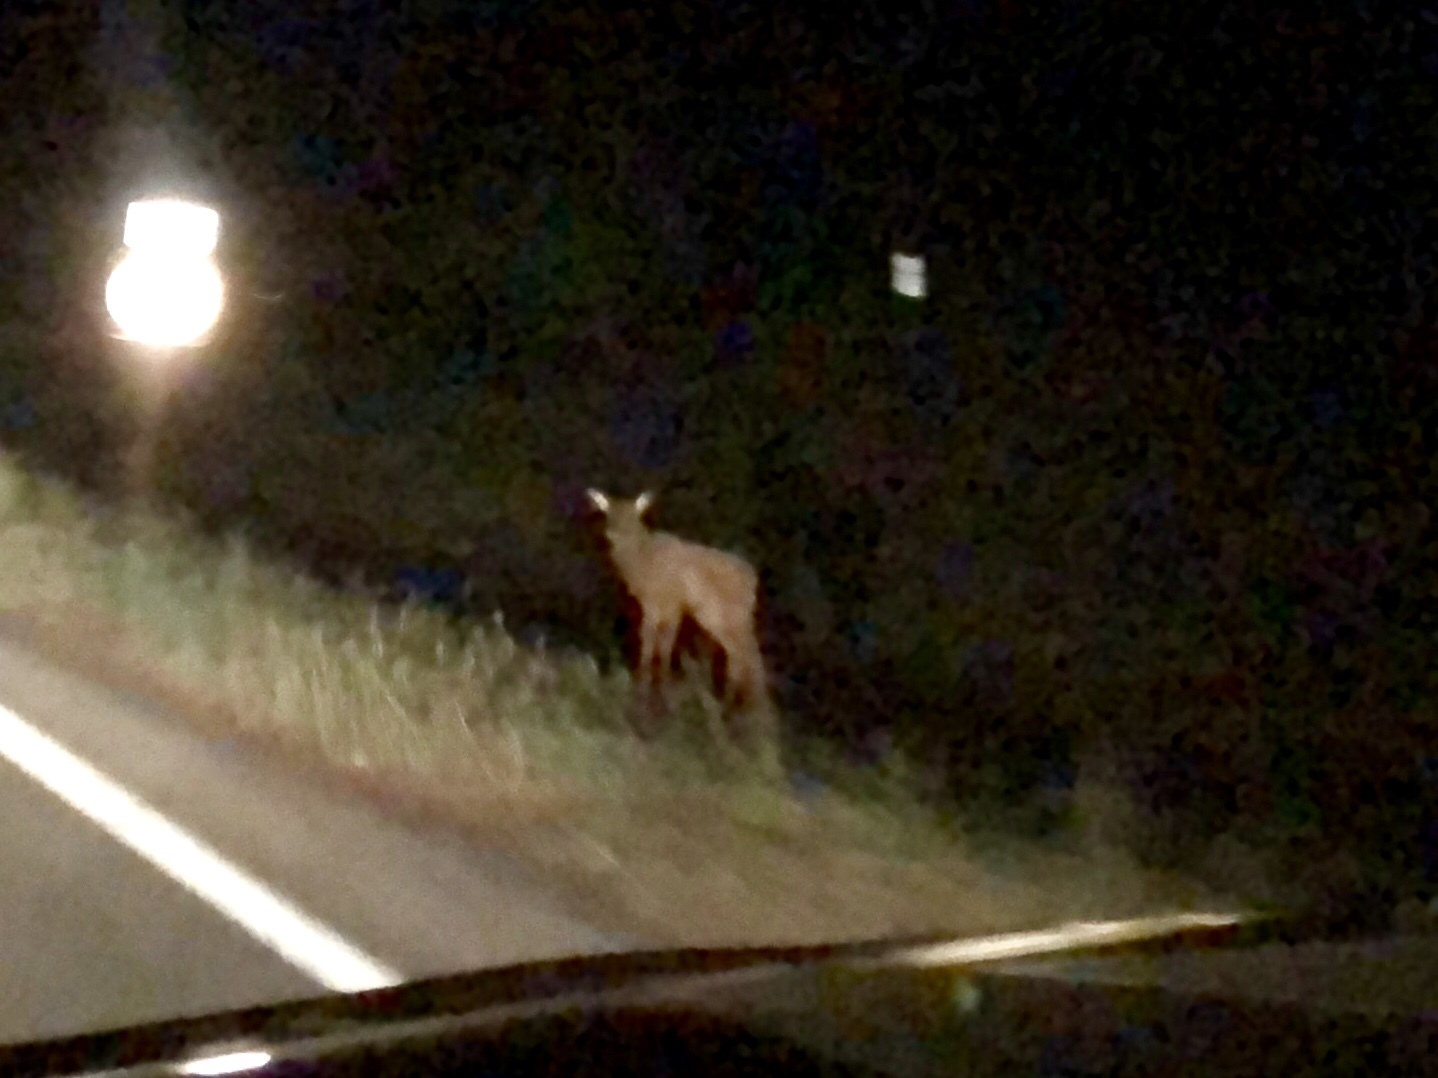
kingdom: Animalia
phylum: Chordata
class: Mammalia
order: Artiodactyla
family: Cervidae
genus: Cervus
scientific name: Cervus elaphus
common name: Red deer
